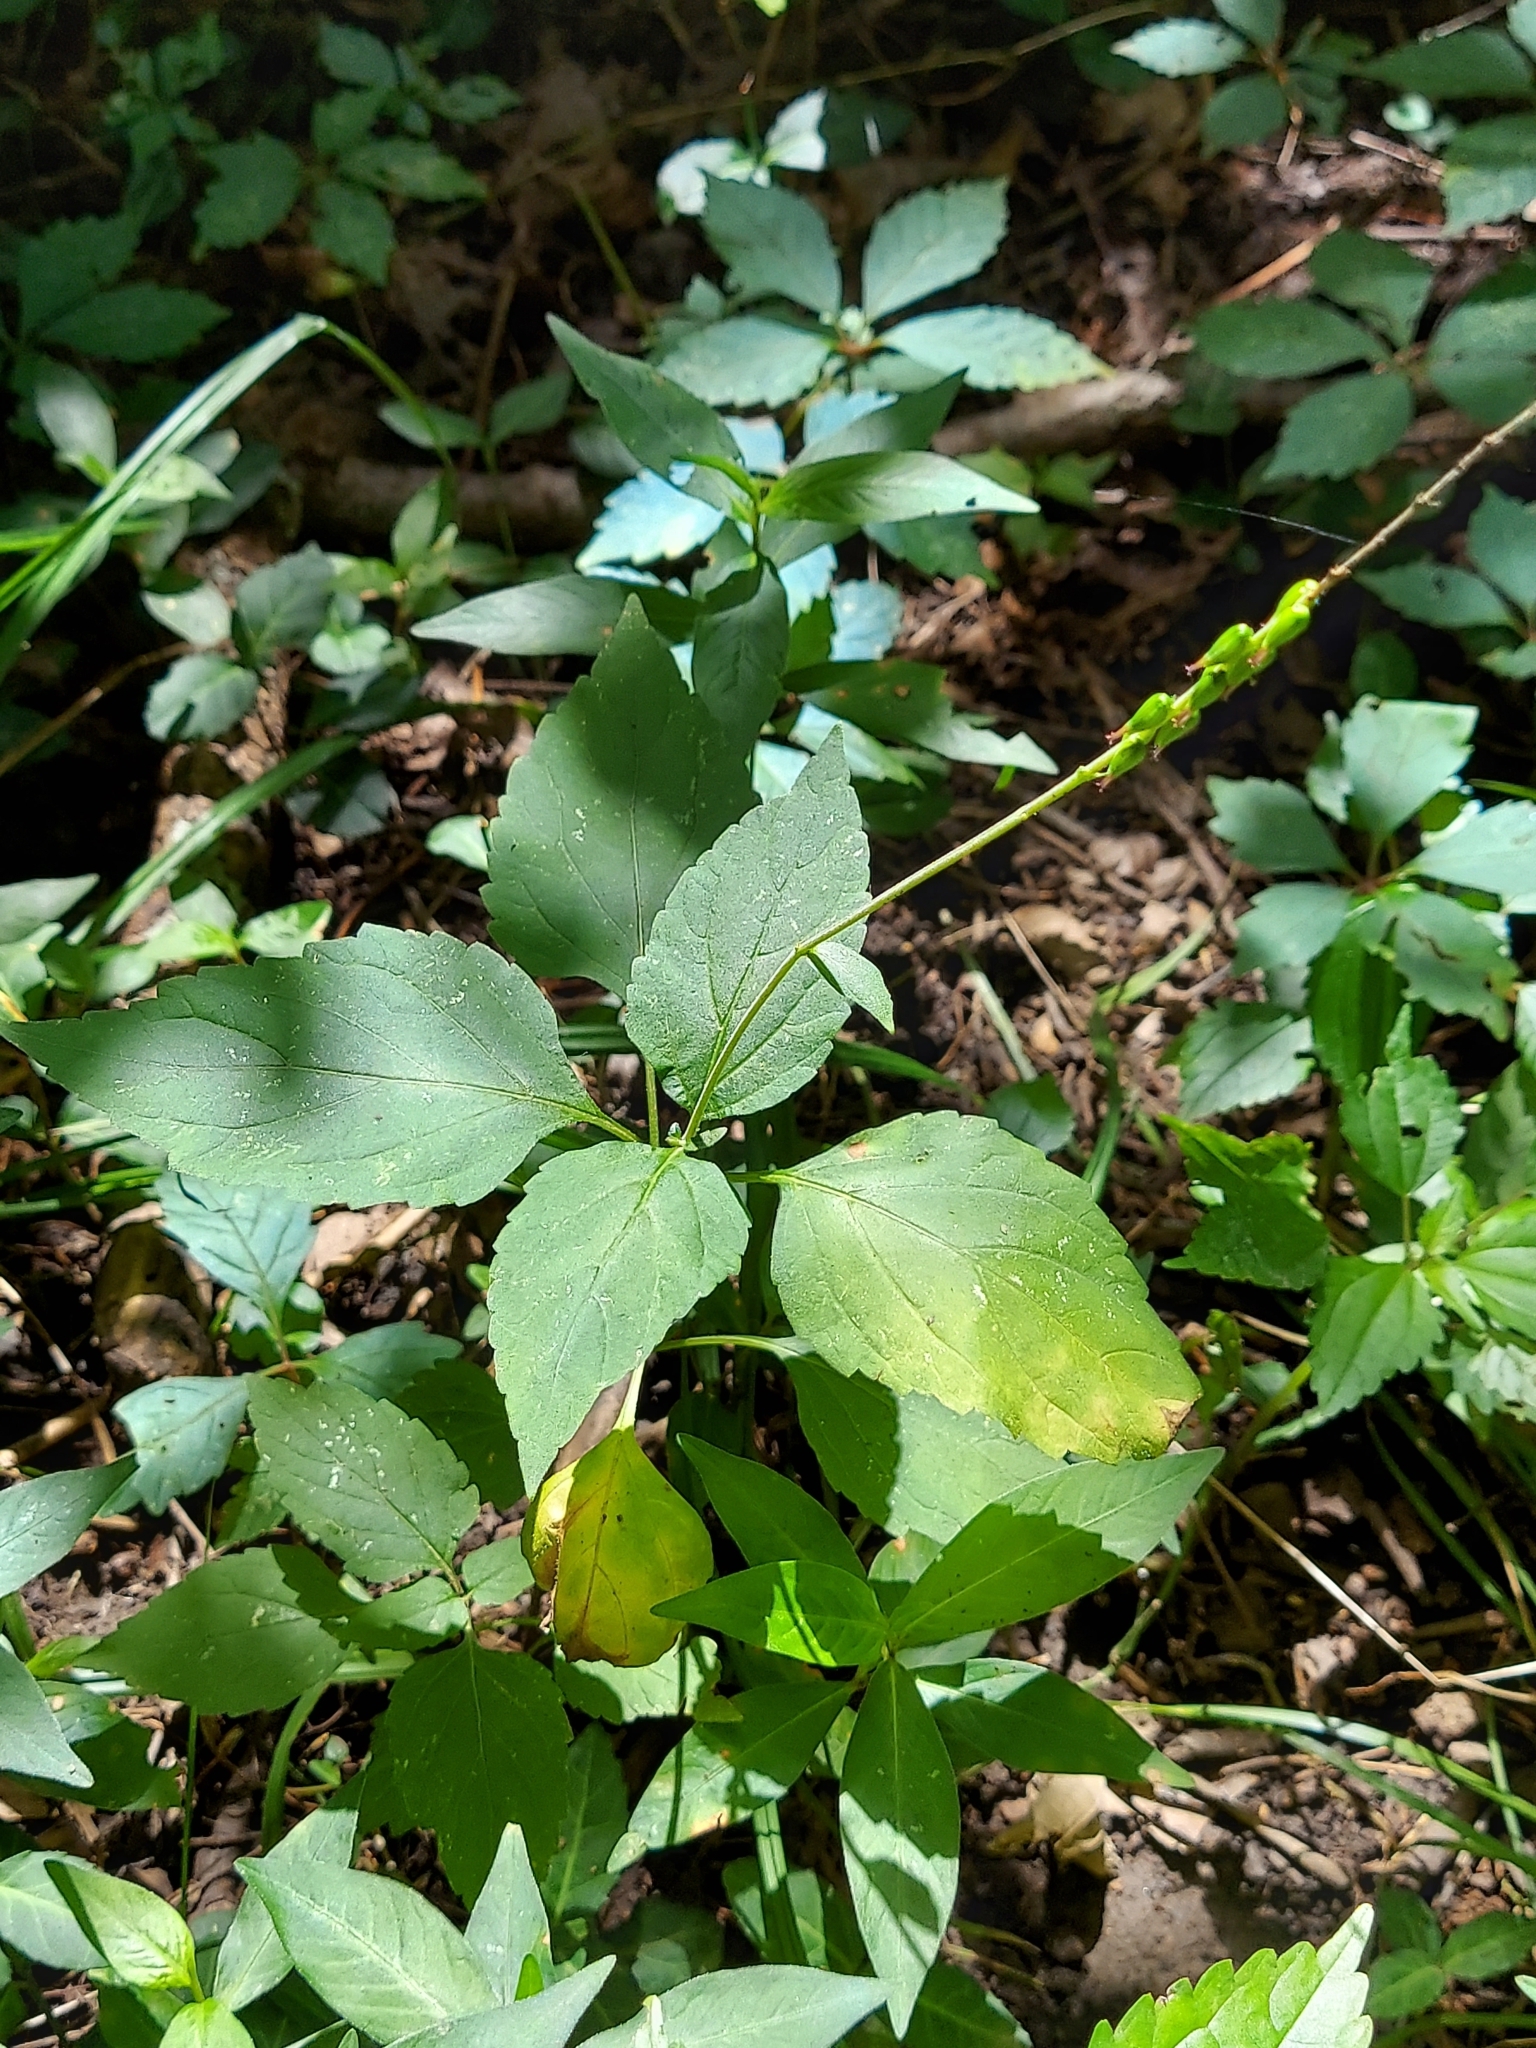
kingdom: Plantae
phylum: Tracheophyta
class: Magnoliopsida
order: Lamiales
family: Phrymaceae
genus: Phryma
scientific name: Phryma leptostachya
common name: American lopseed
